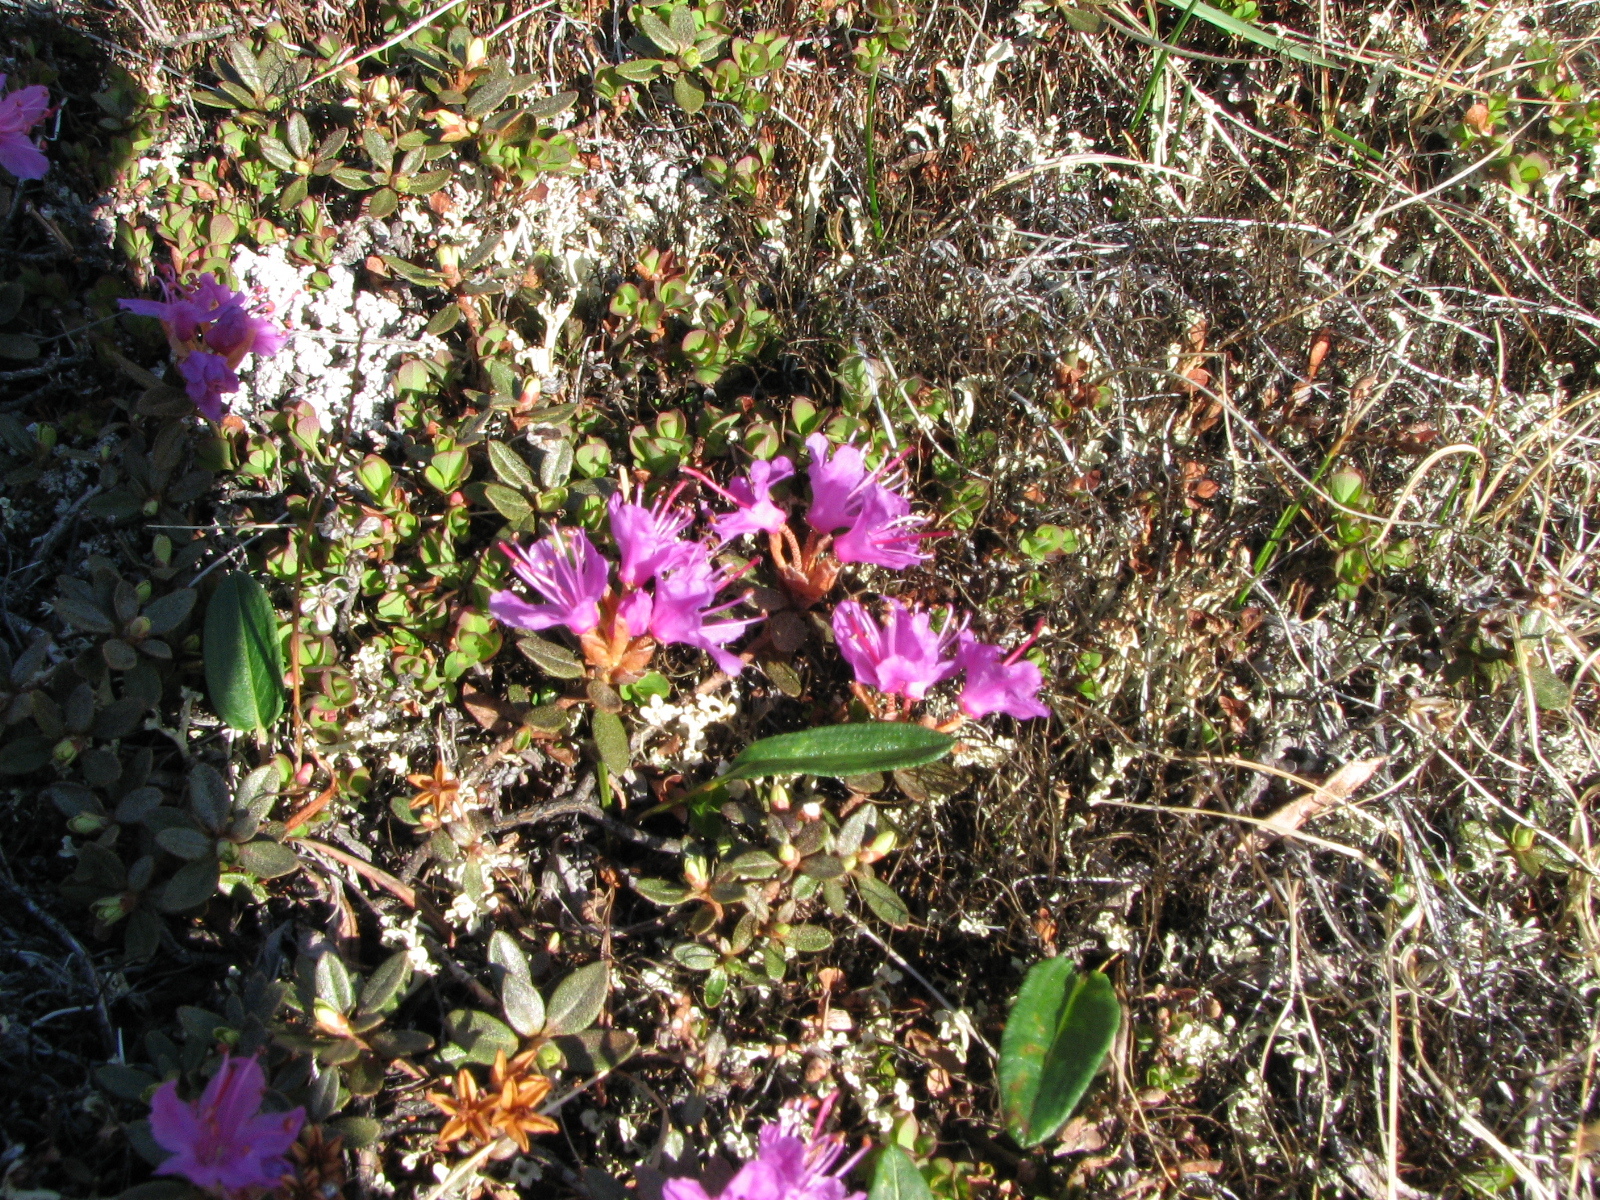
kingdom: Plantae
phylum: Tracheophyta
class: Magnoliopsida
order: Ericales
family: Ericaceae
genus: Rhododendron
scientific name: Rhododendron lapponicum
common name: Lapland rhododendron
